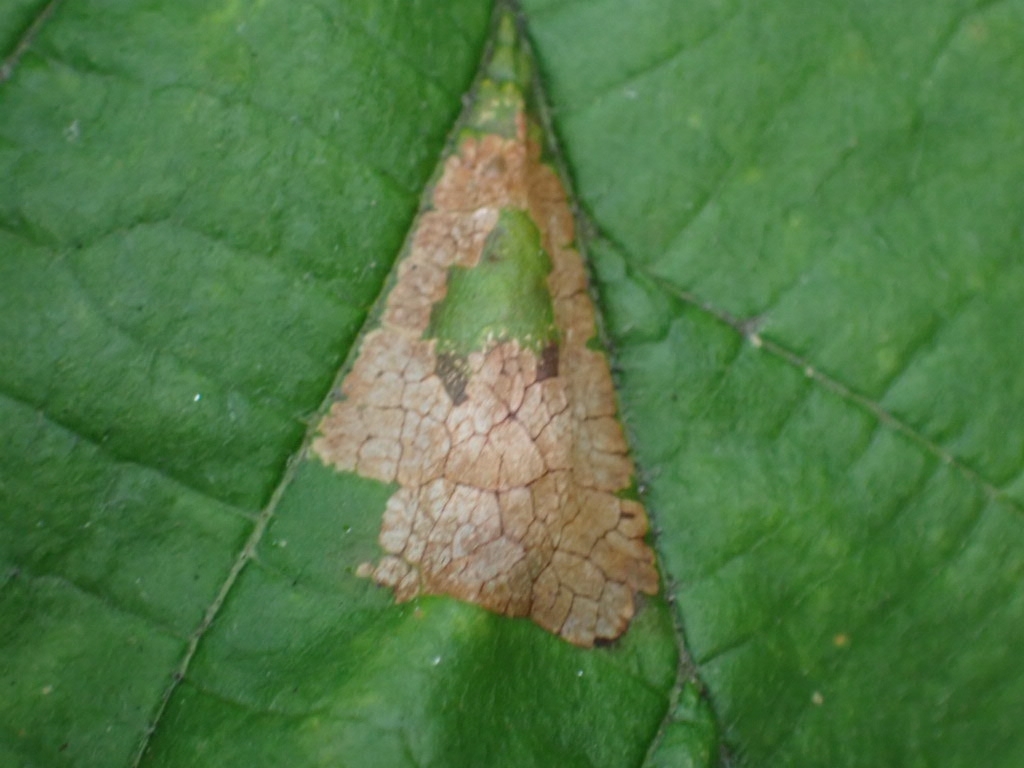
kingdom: Animalia
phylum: Arthropoda
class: Insecta
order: Lepidoptera
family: Gracillariidae
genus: Phyllonorycter
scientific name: Phyllonorycter nicellii
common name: Red hazel midget
